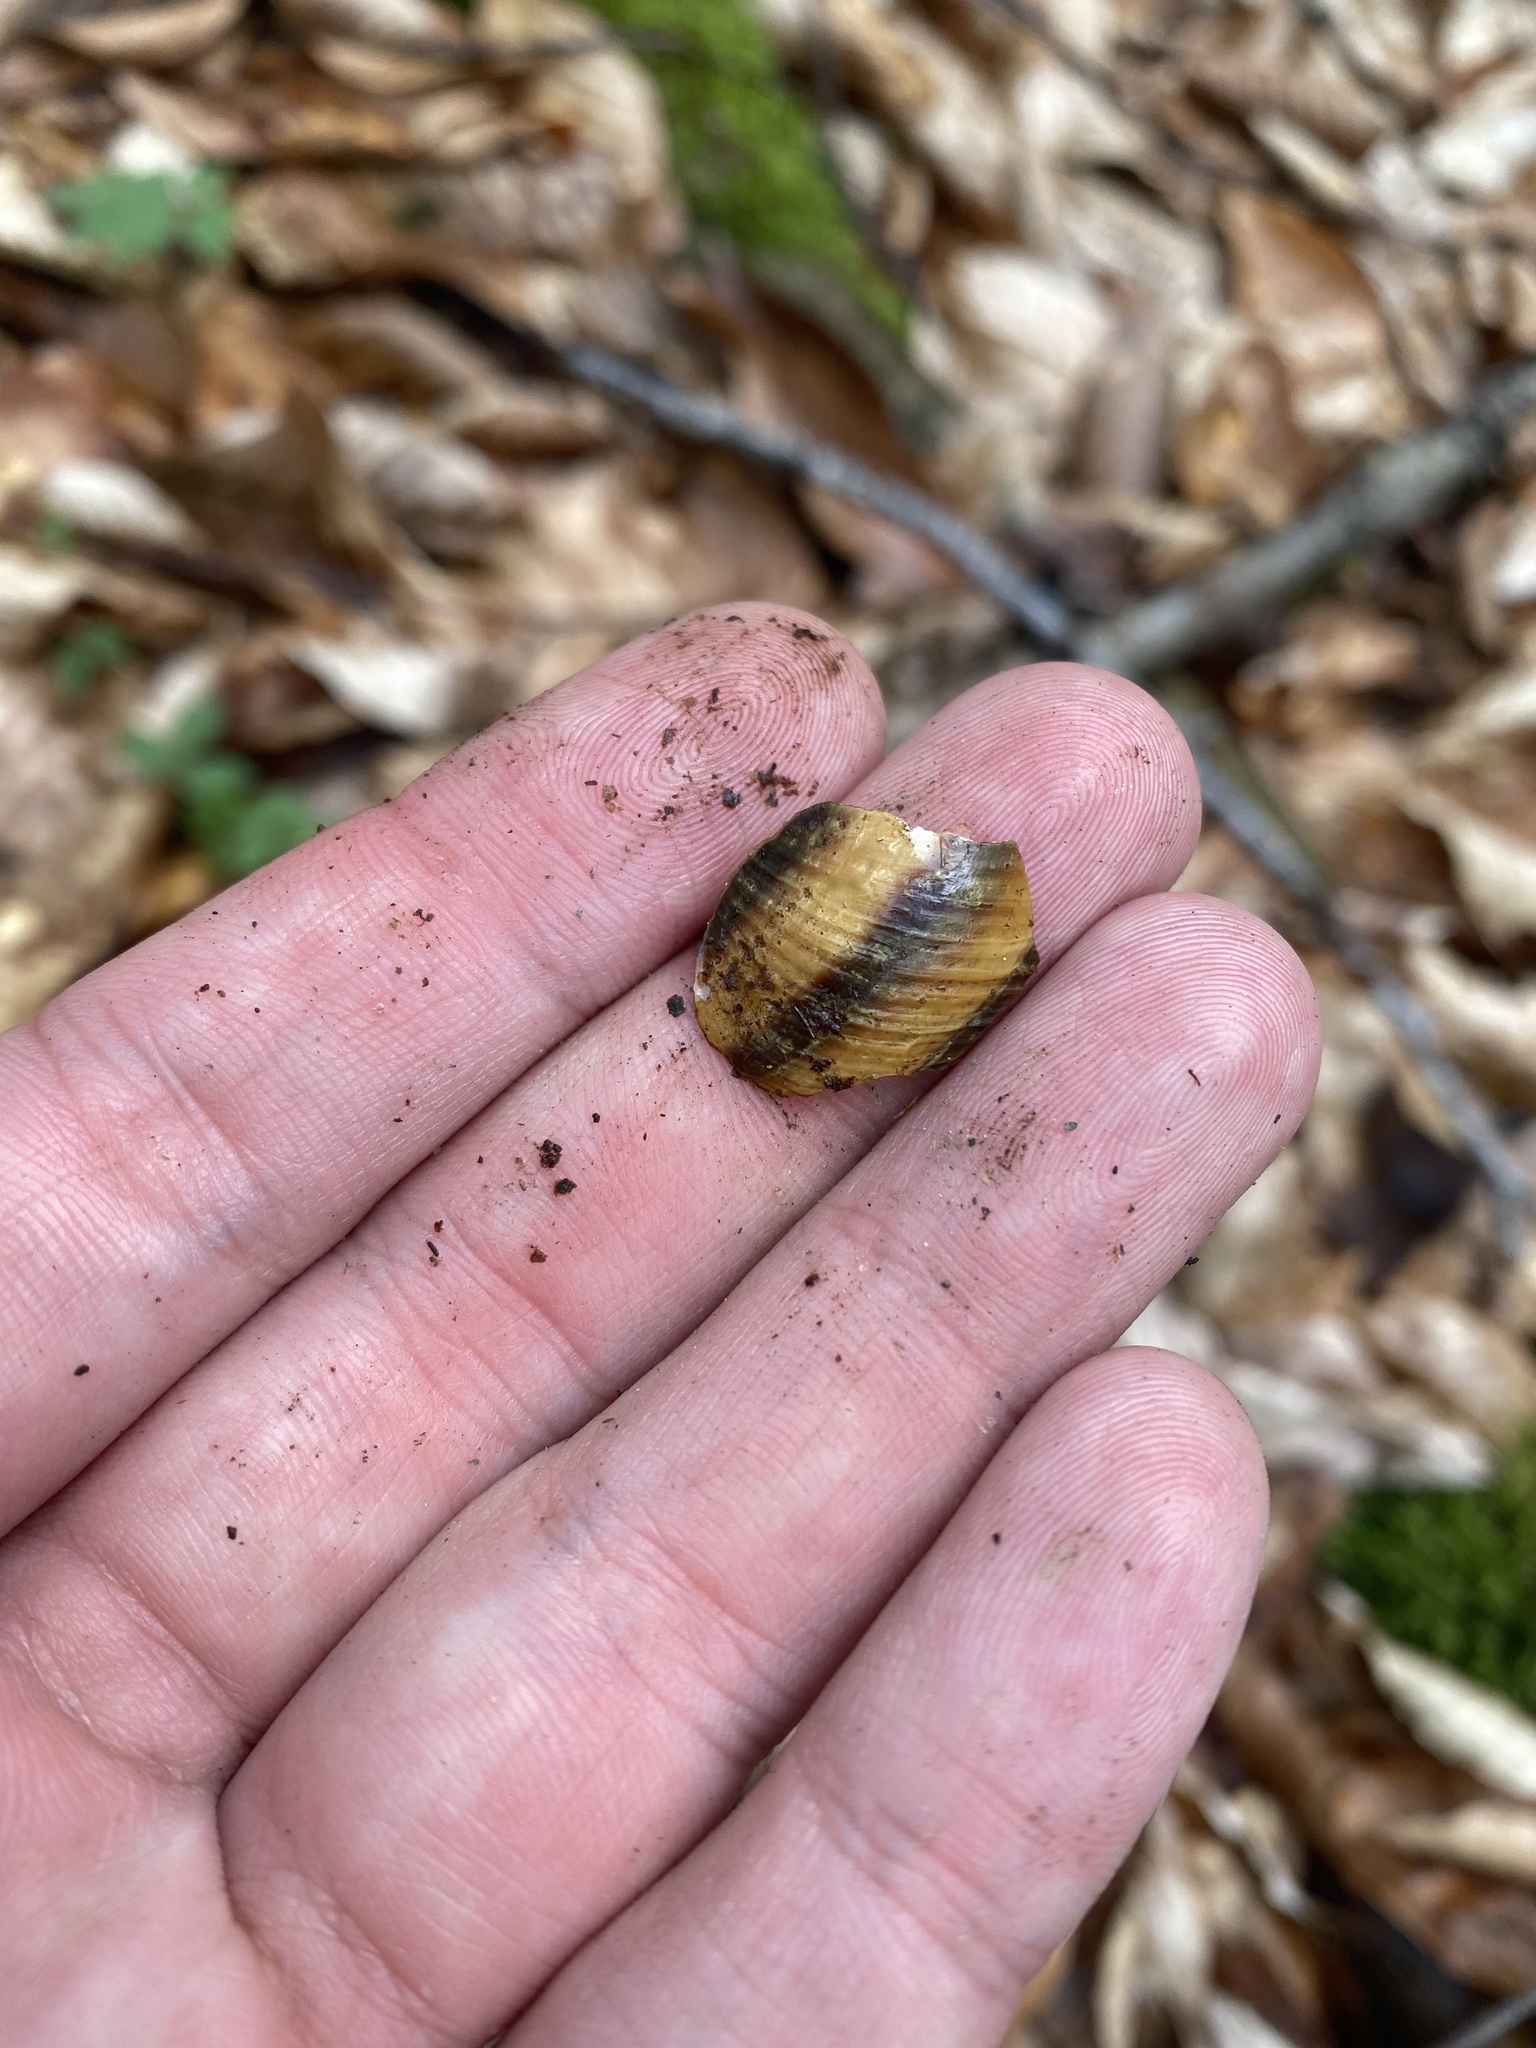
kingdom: Animalia
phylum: Mollusca
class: Gastropoda
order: Stylommatophora
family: Helicidae
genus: Caucasotachea
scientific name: Caucasotachea atrolabiata
